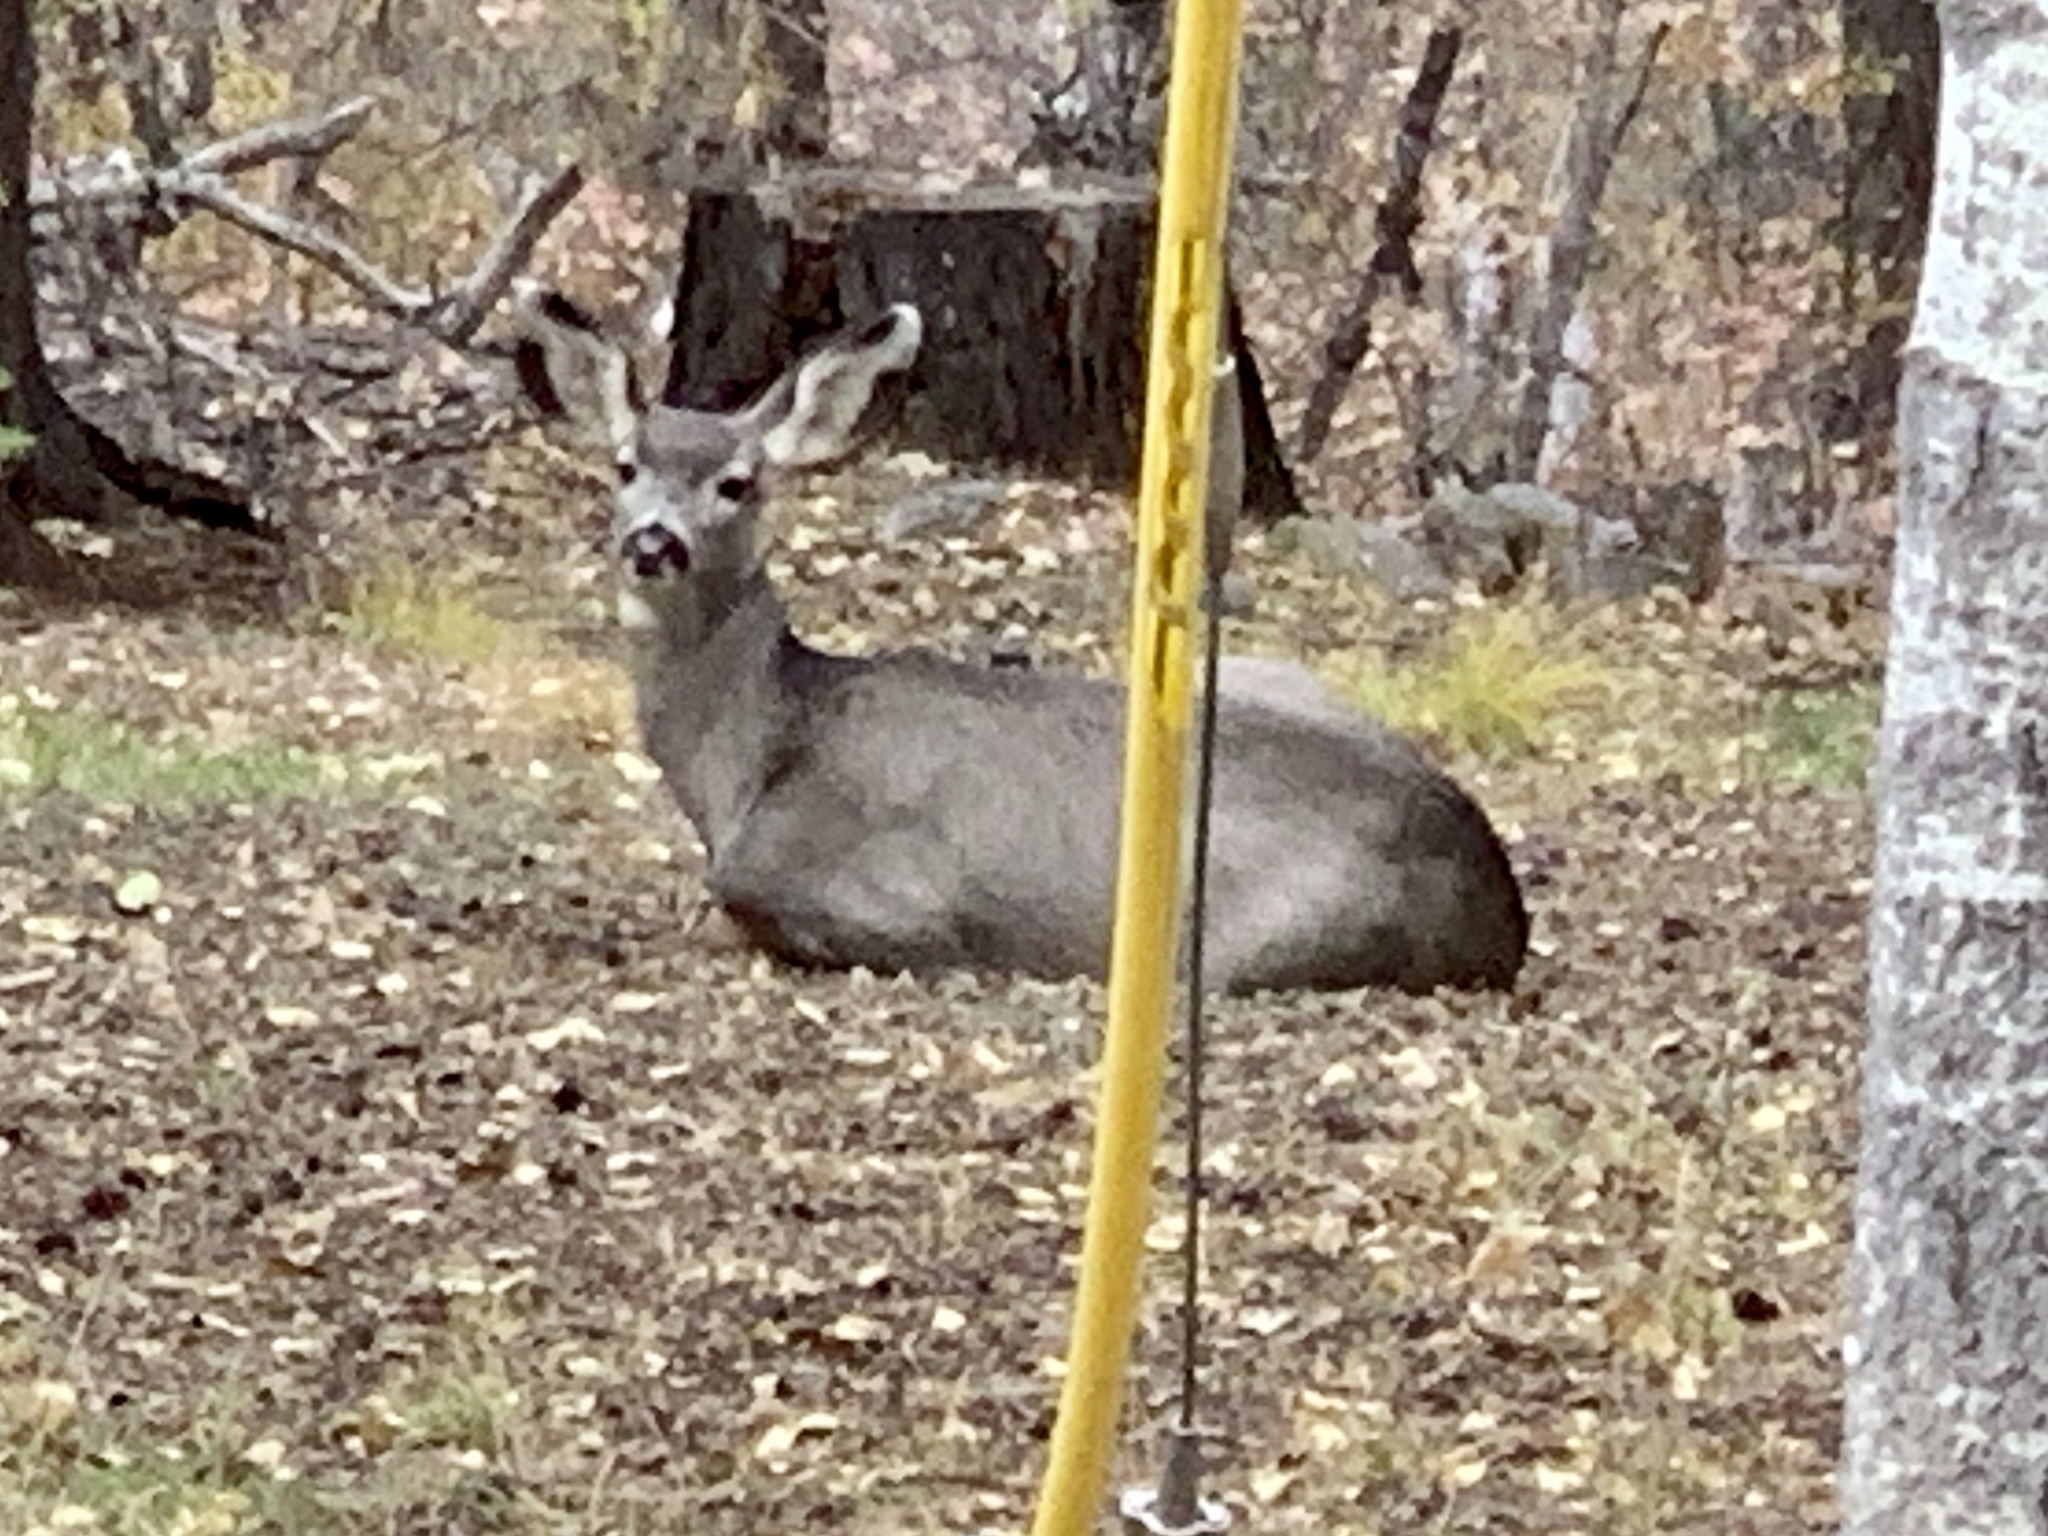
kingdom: Animalia
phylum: Chordata
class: Mammalia
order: Artiodactyla
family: Cervidae
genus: Odocoileus
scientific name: Odocoileus hemionus
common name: Mule deer
